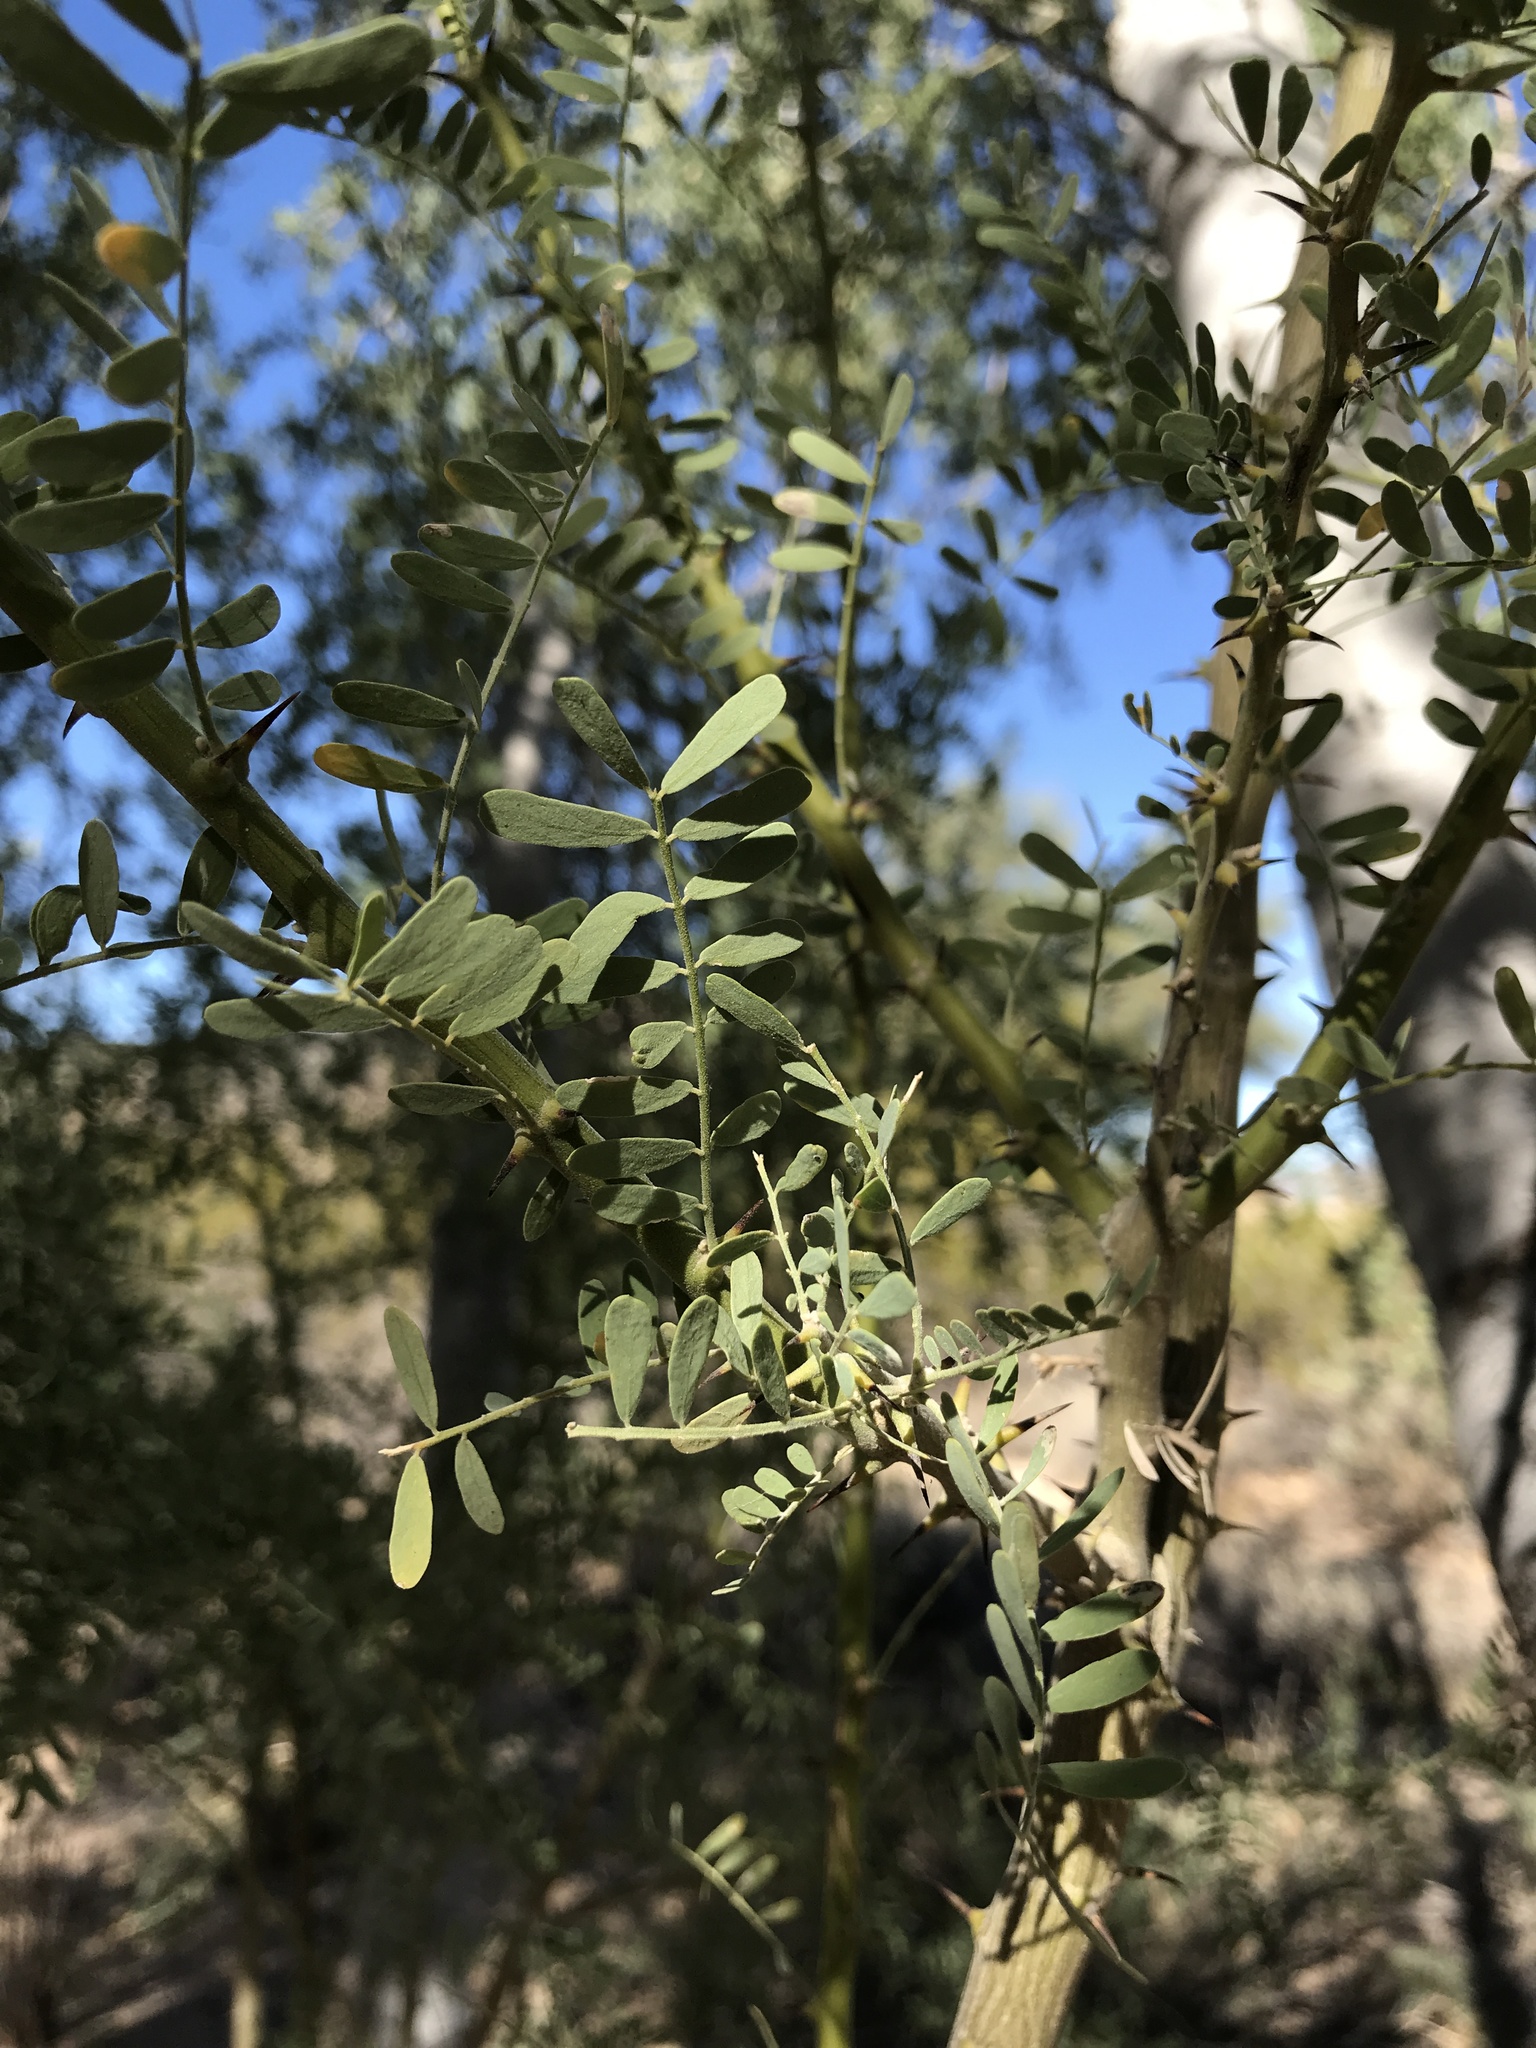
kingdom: Plantae
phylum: Tracheophyta
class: Magnoliopsida
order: Fabales
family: Fabaceae
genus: Olneya
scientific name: Olneya tesota
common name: Desert ironwood
